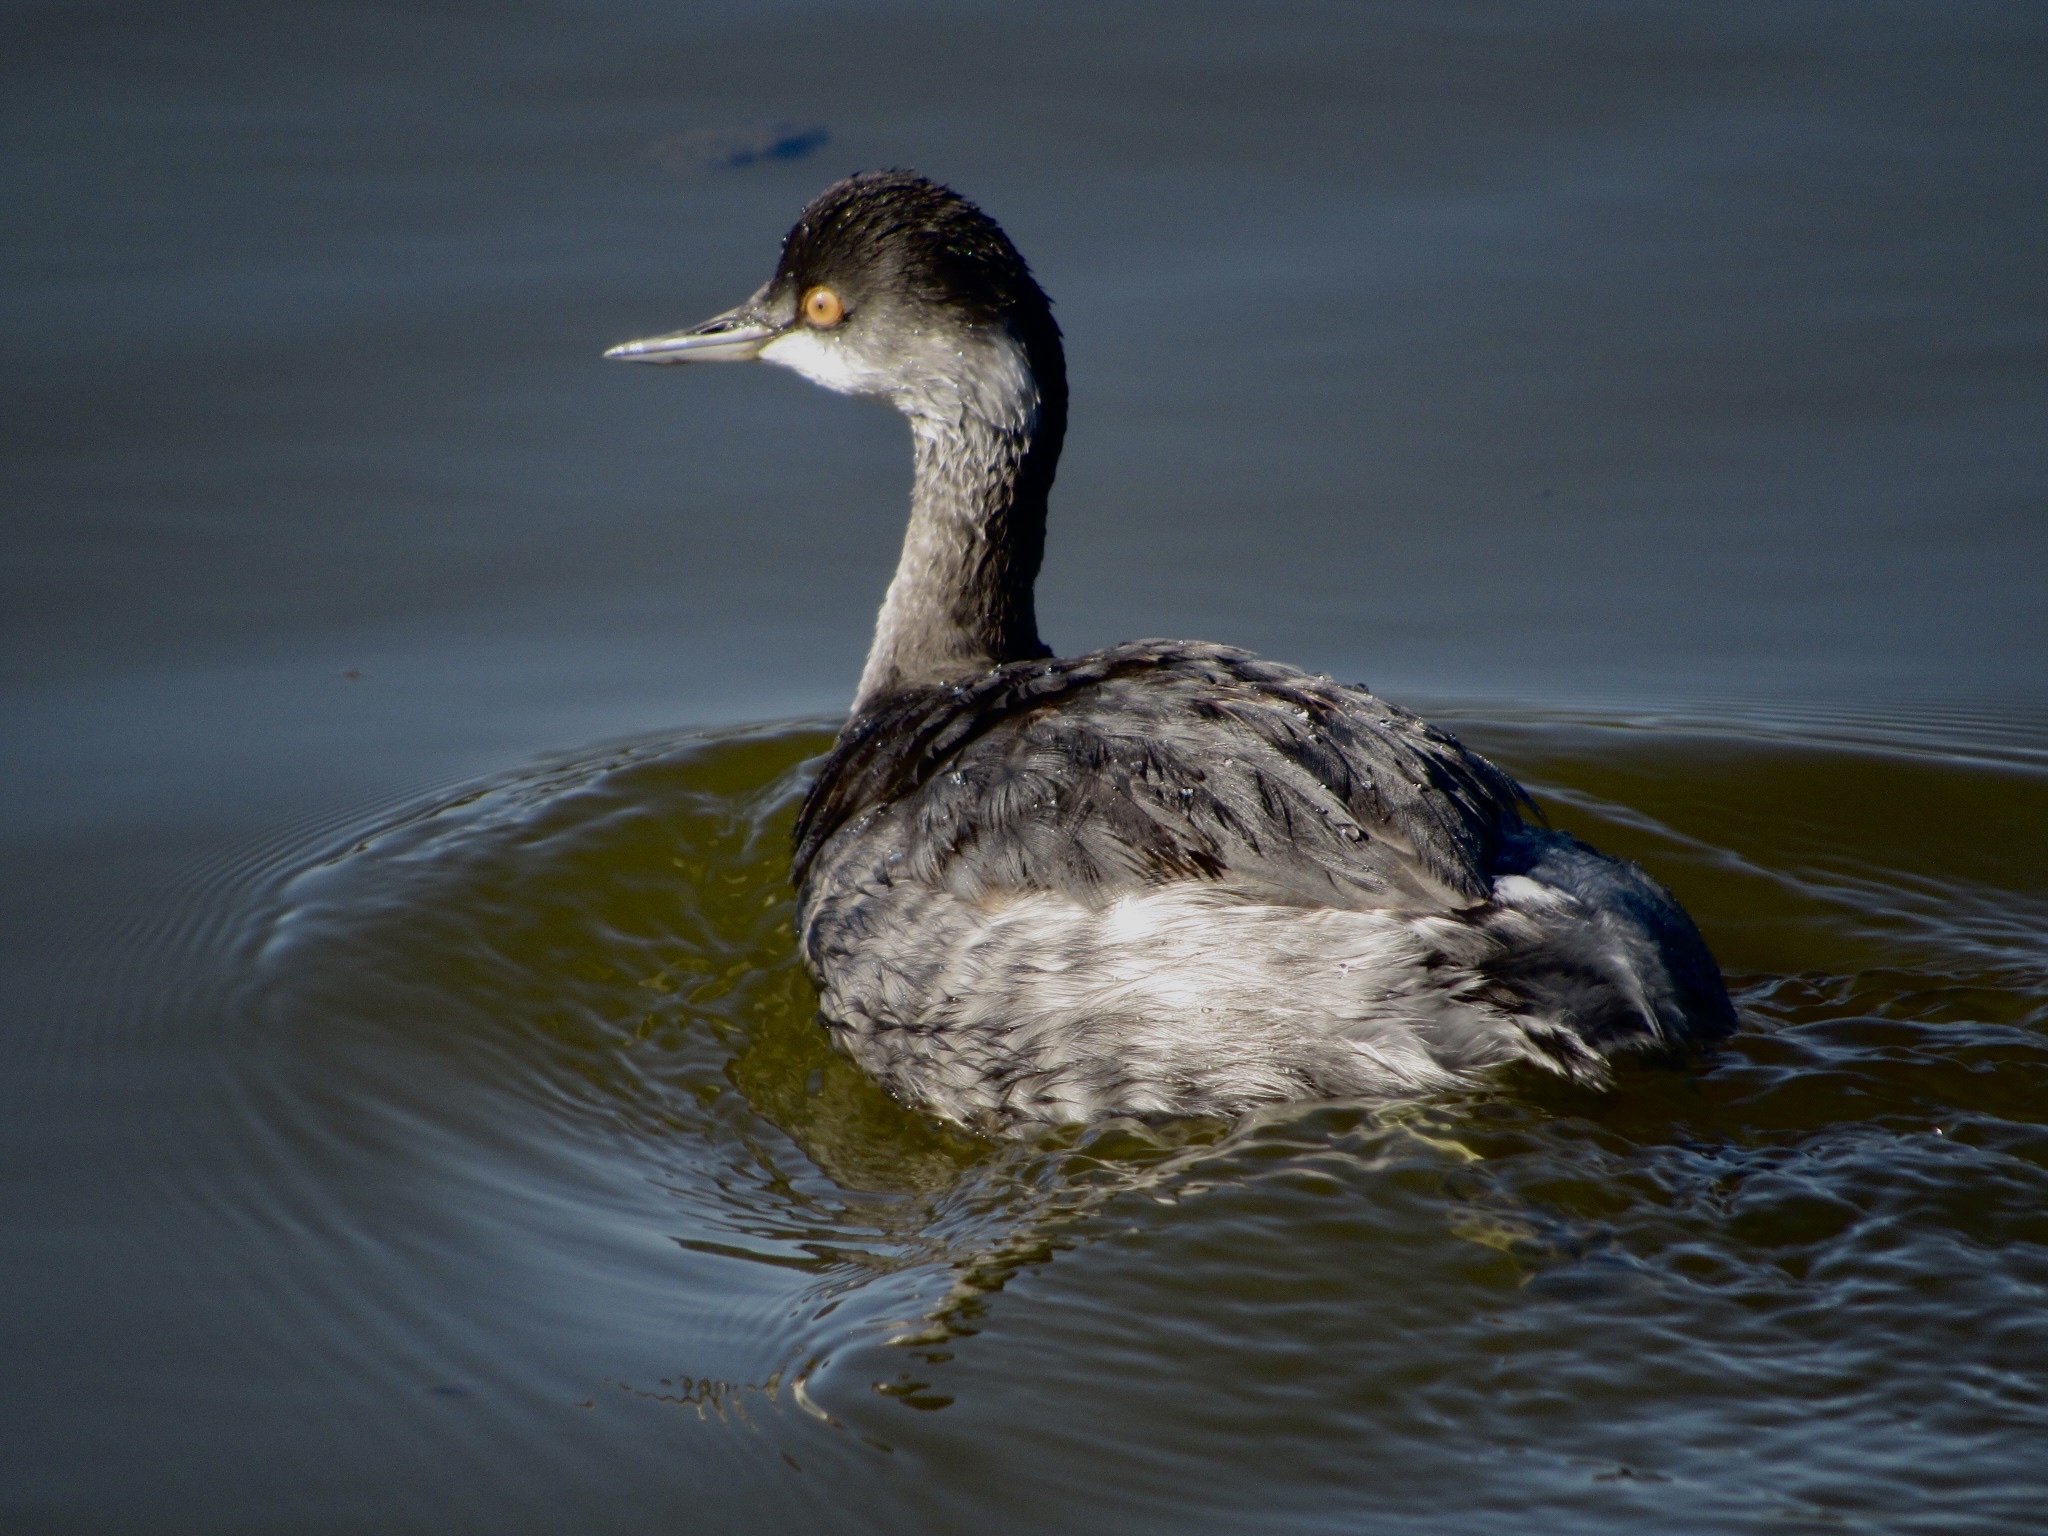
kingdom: Animalia
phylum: Chordata
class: Aves
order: Podicipediformes
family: Podicipedidae
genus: Podiceps
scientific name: Podiceps nigricollis
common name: Black-necked grebe
